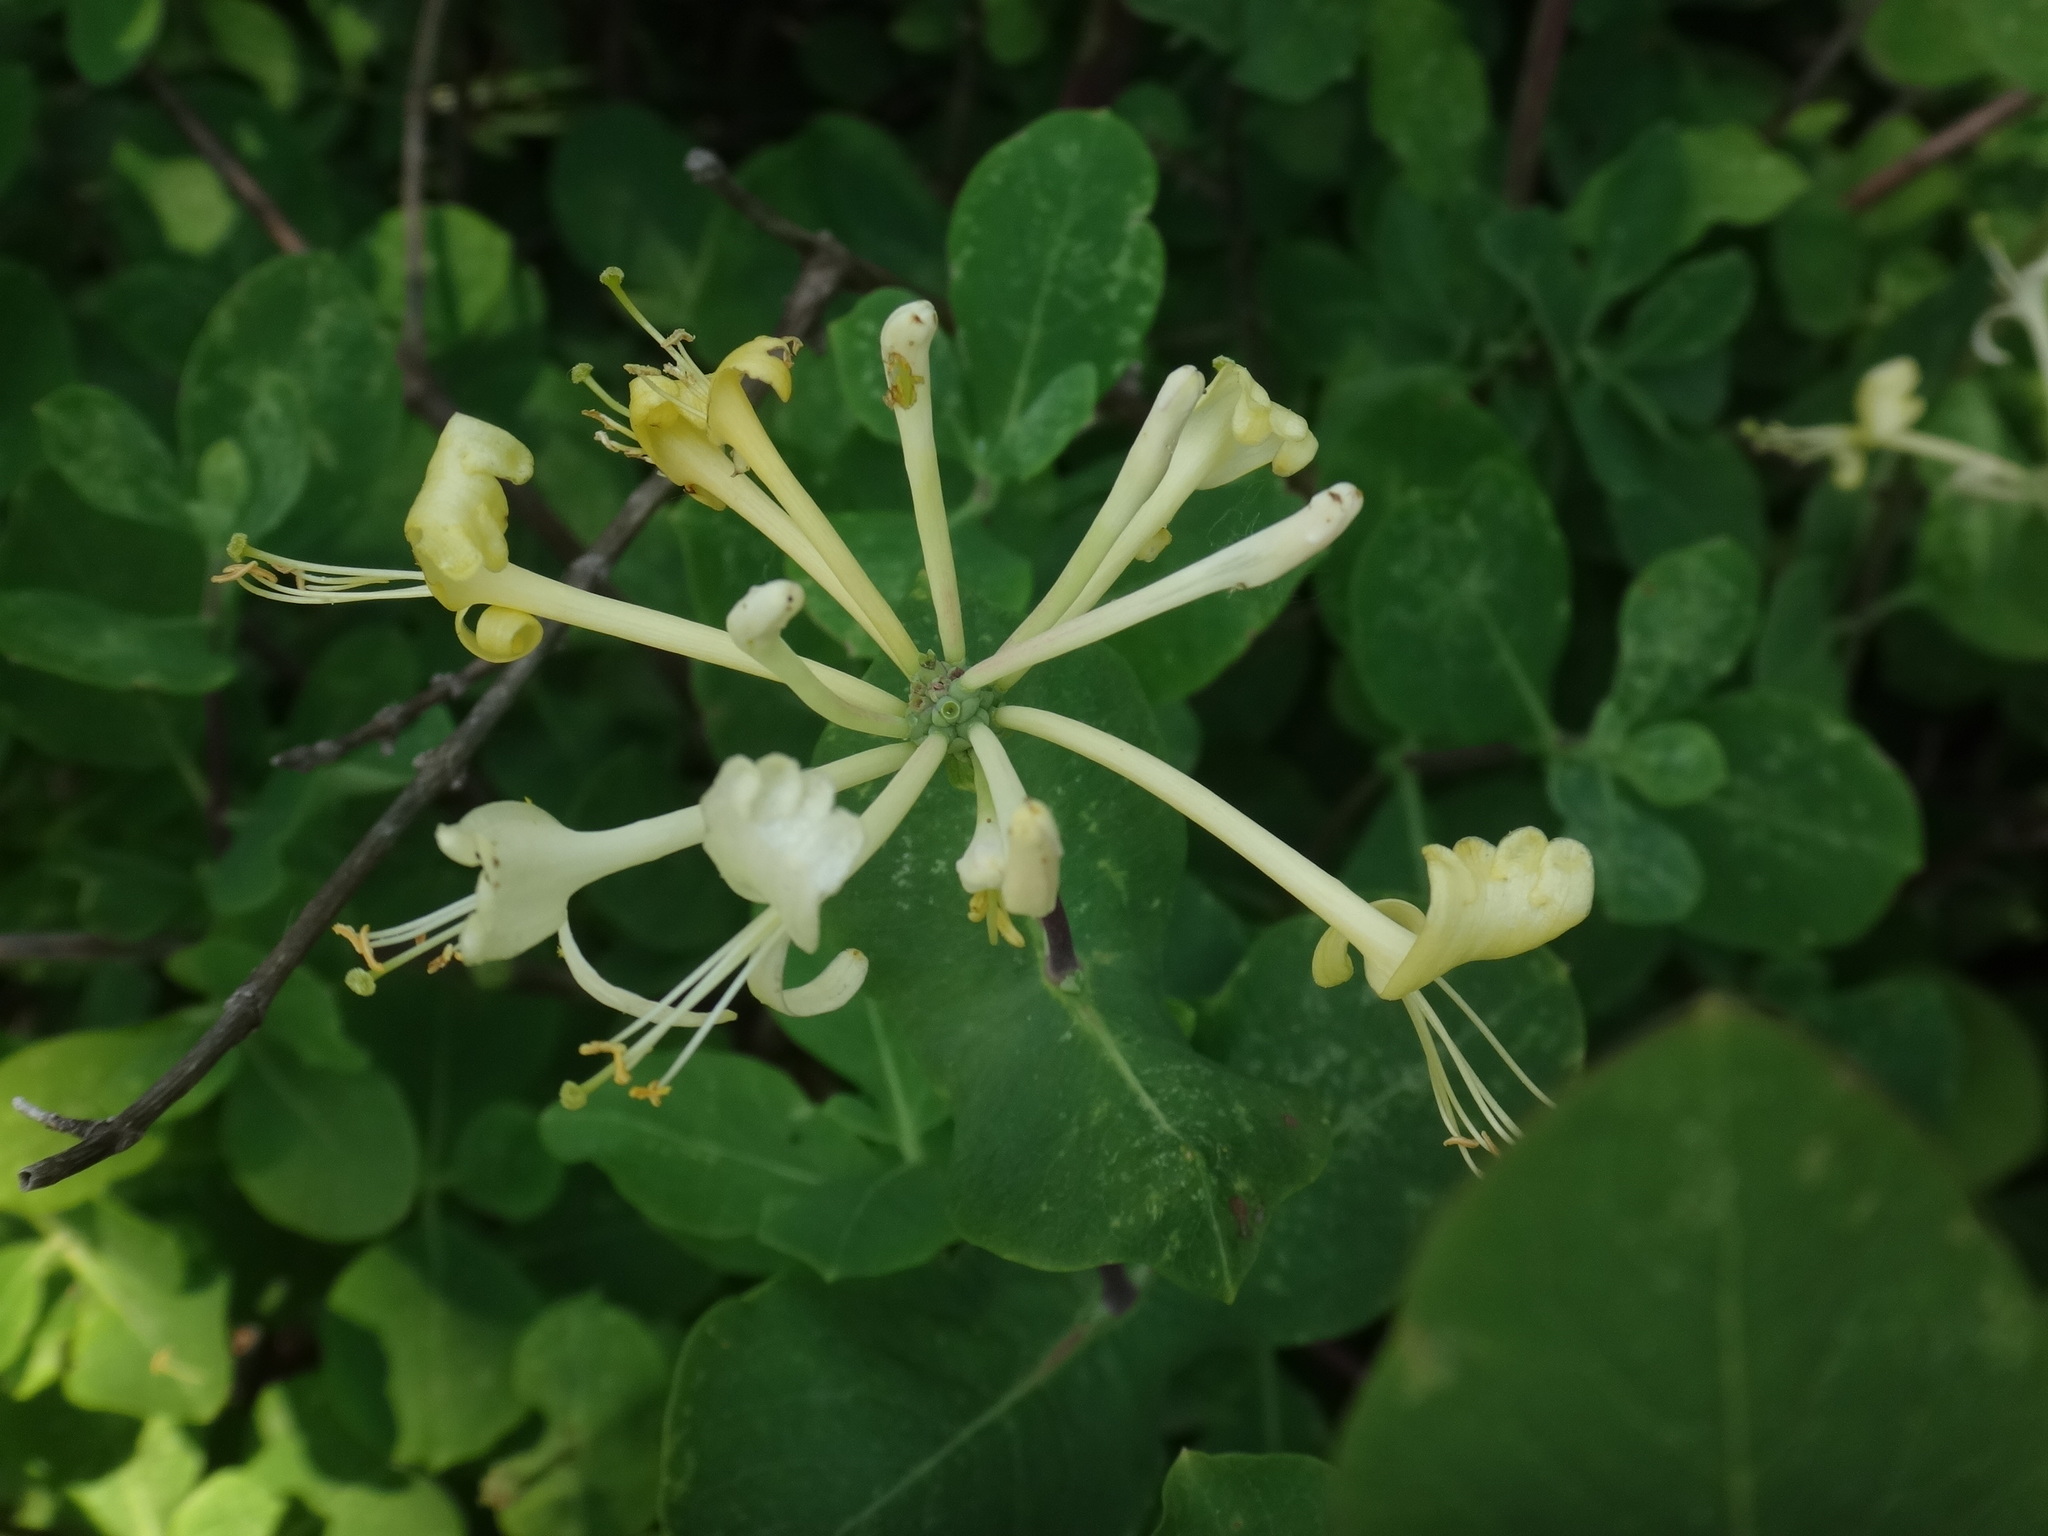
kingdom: Plantae
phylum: Tracheophyta
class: Magnoliopsida
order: Dipsacales
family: Caprifoliaceae
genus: Lonicera
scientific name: Lonicera etrusca
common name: Etruscan honeysuckle
